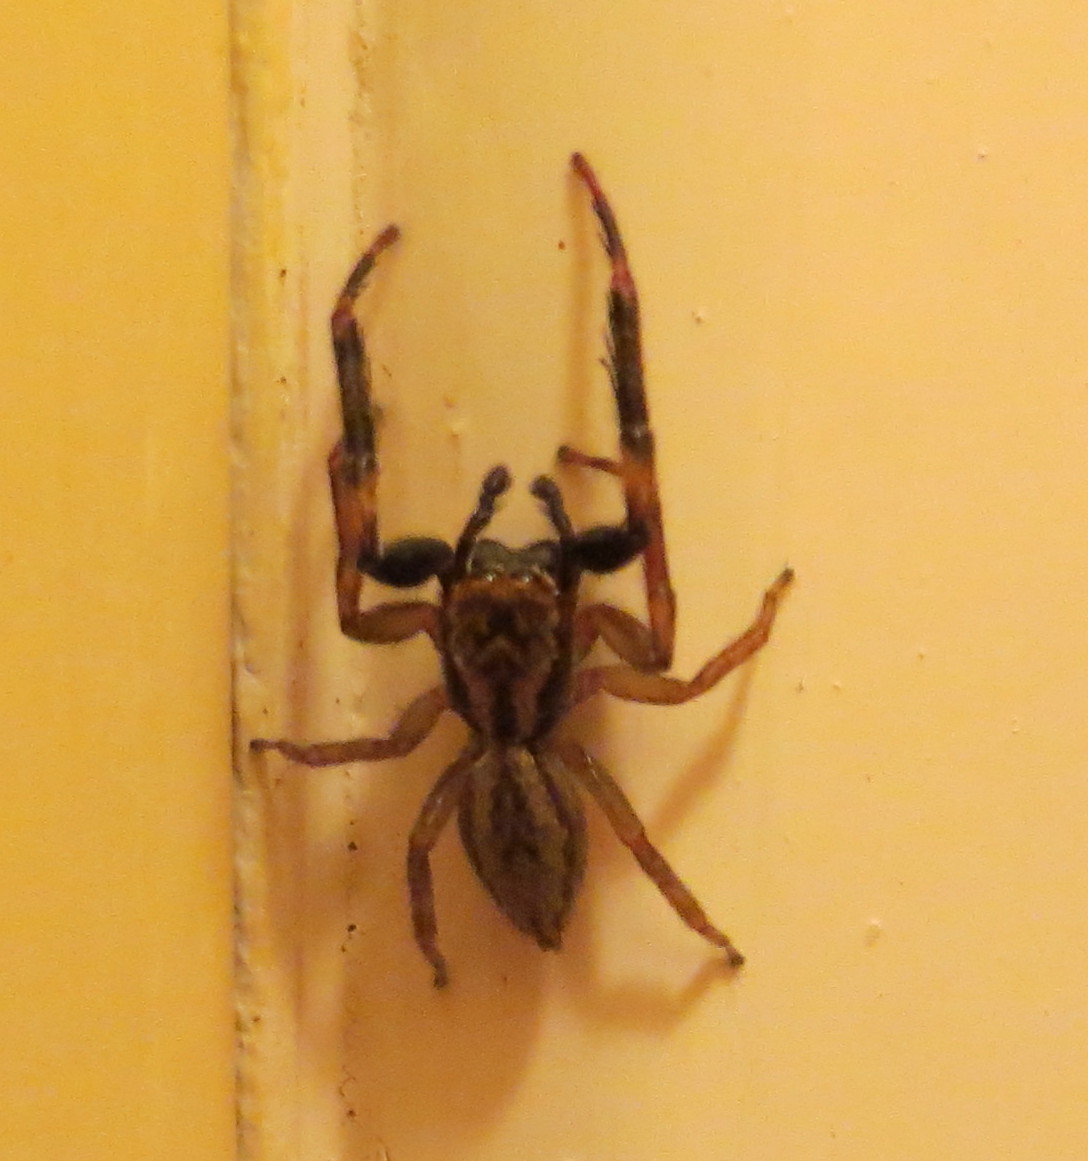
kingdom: Animalia
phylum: Arthropoda
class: Arachnida
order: Araneae
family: Salticidae
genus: Trite
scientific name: Trite auricoma
